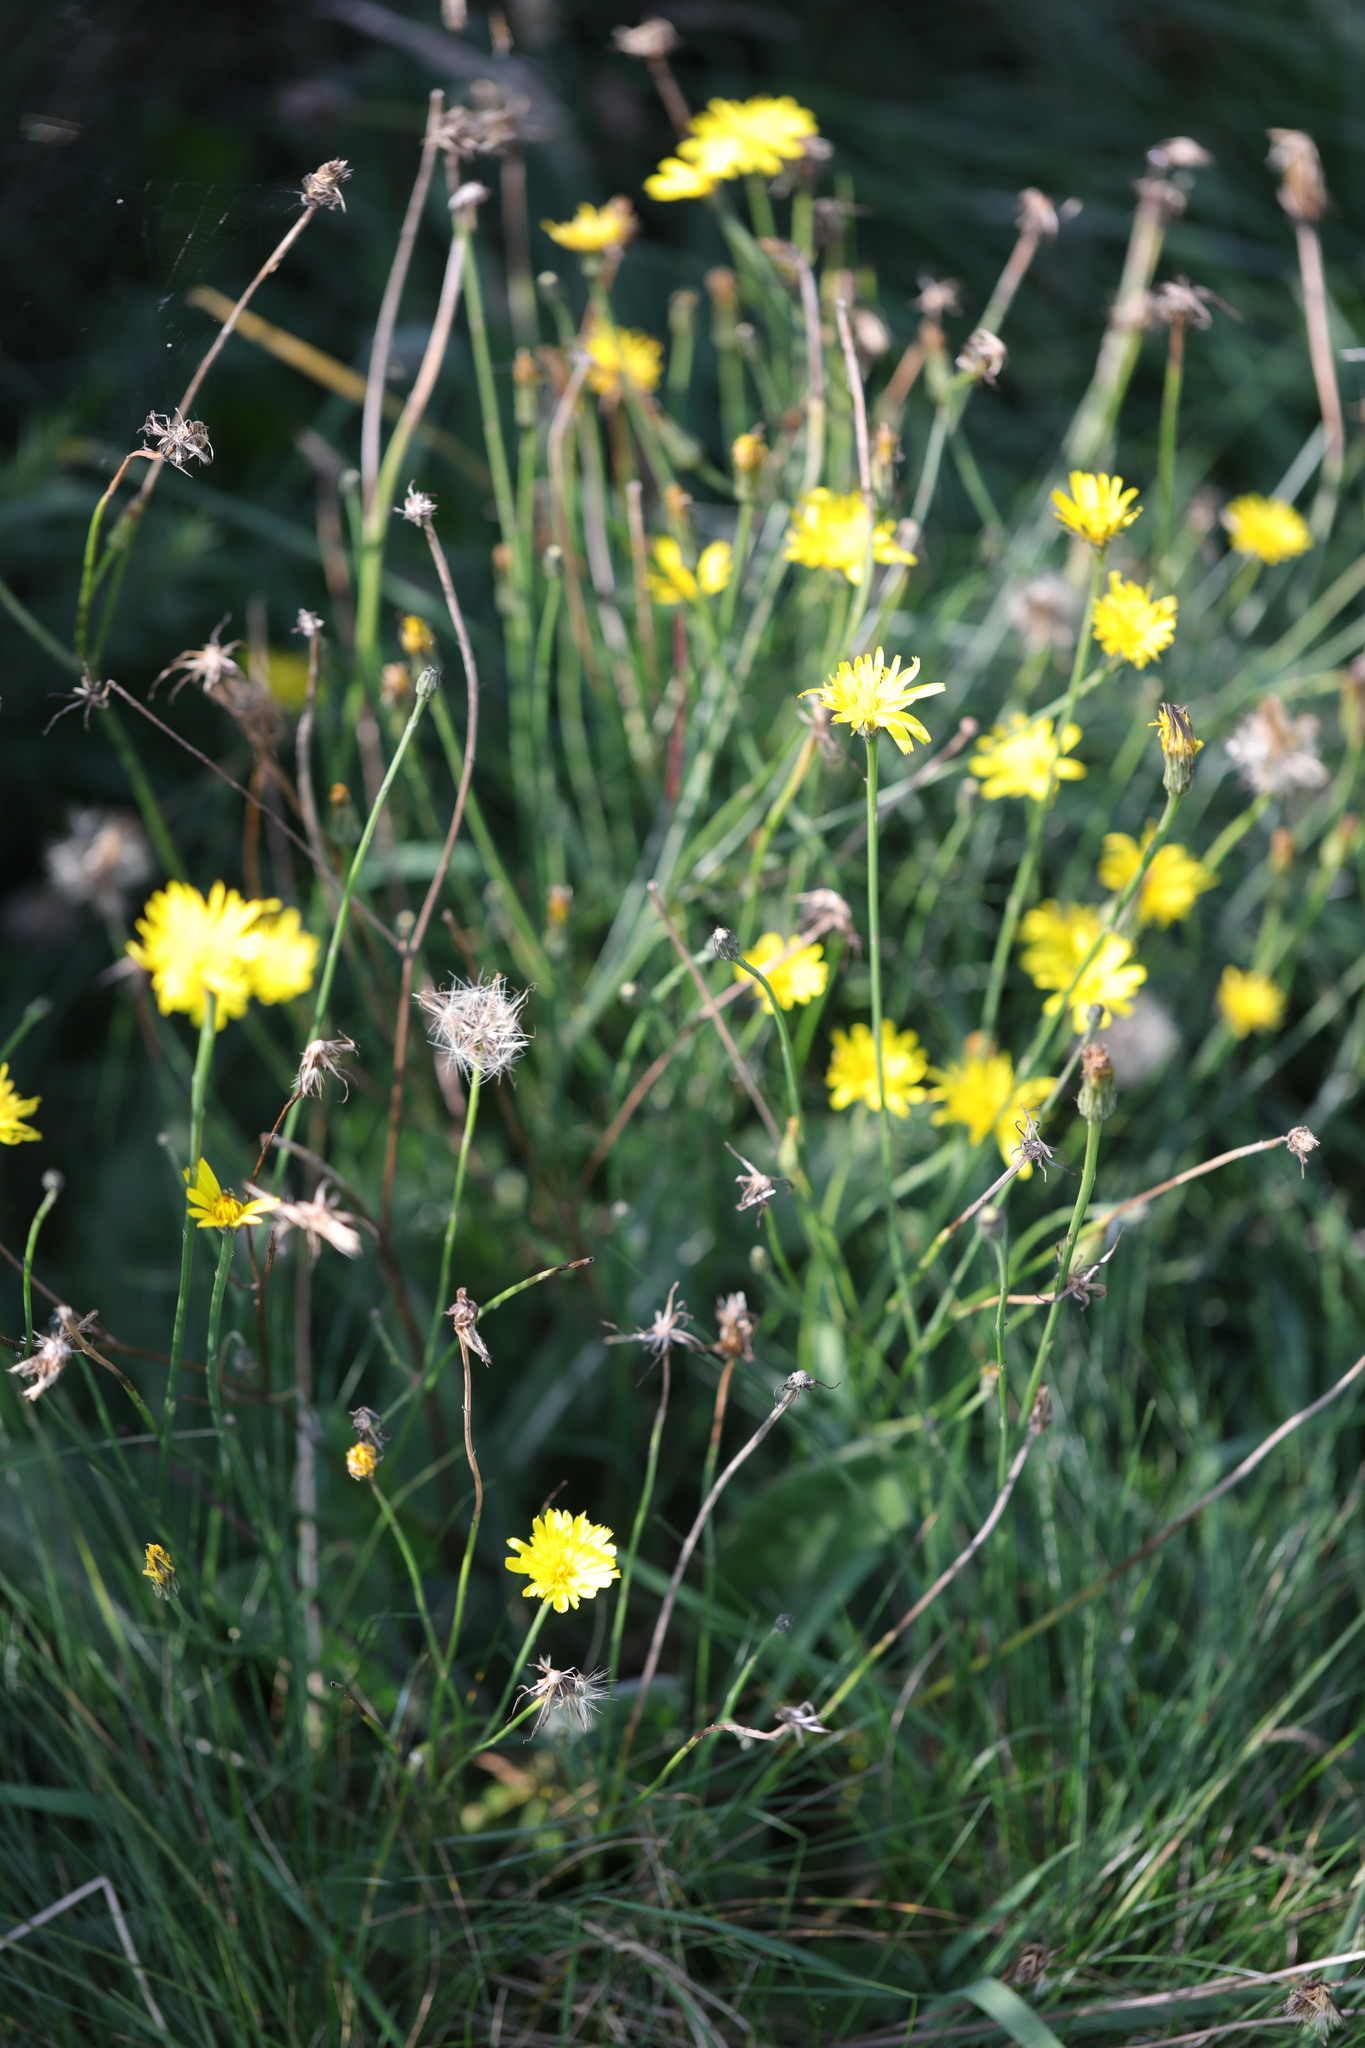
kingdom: Plantae
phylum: Tracheophyta
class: Magnoliopsida
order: Asterales
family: Asteraceae
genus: Hypochaeris
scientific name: Hypochaeris radicata
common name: Flatweed
